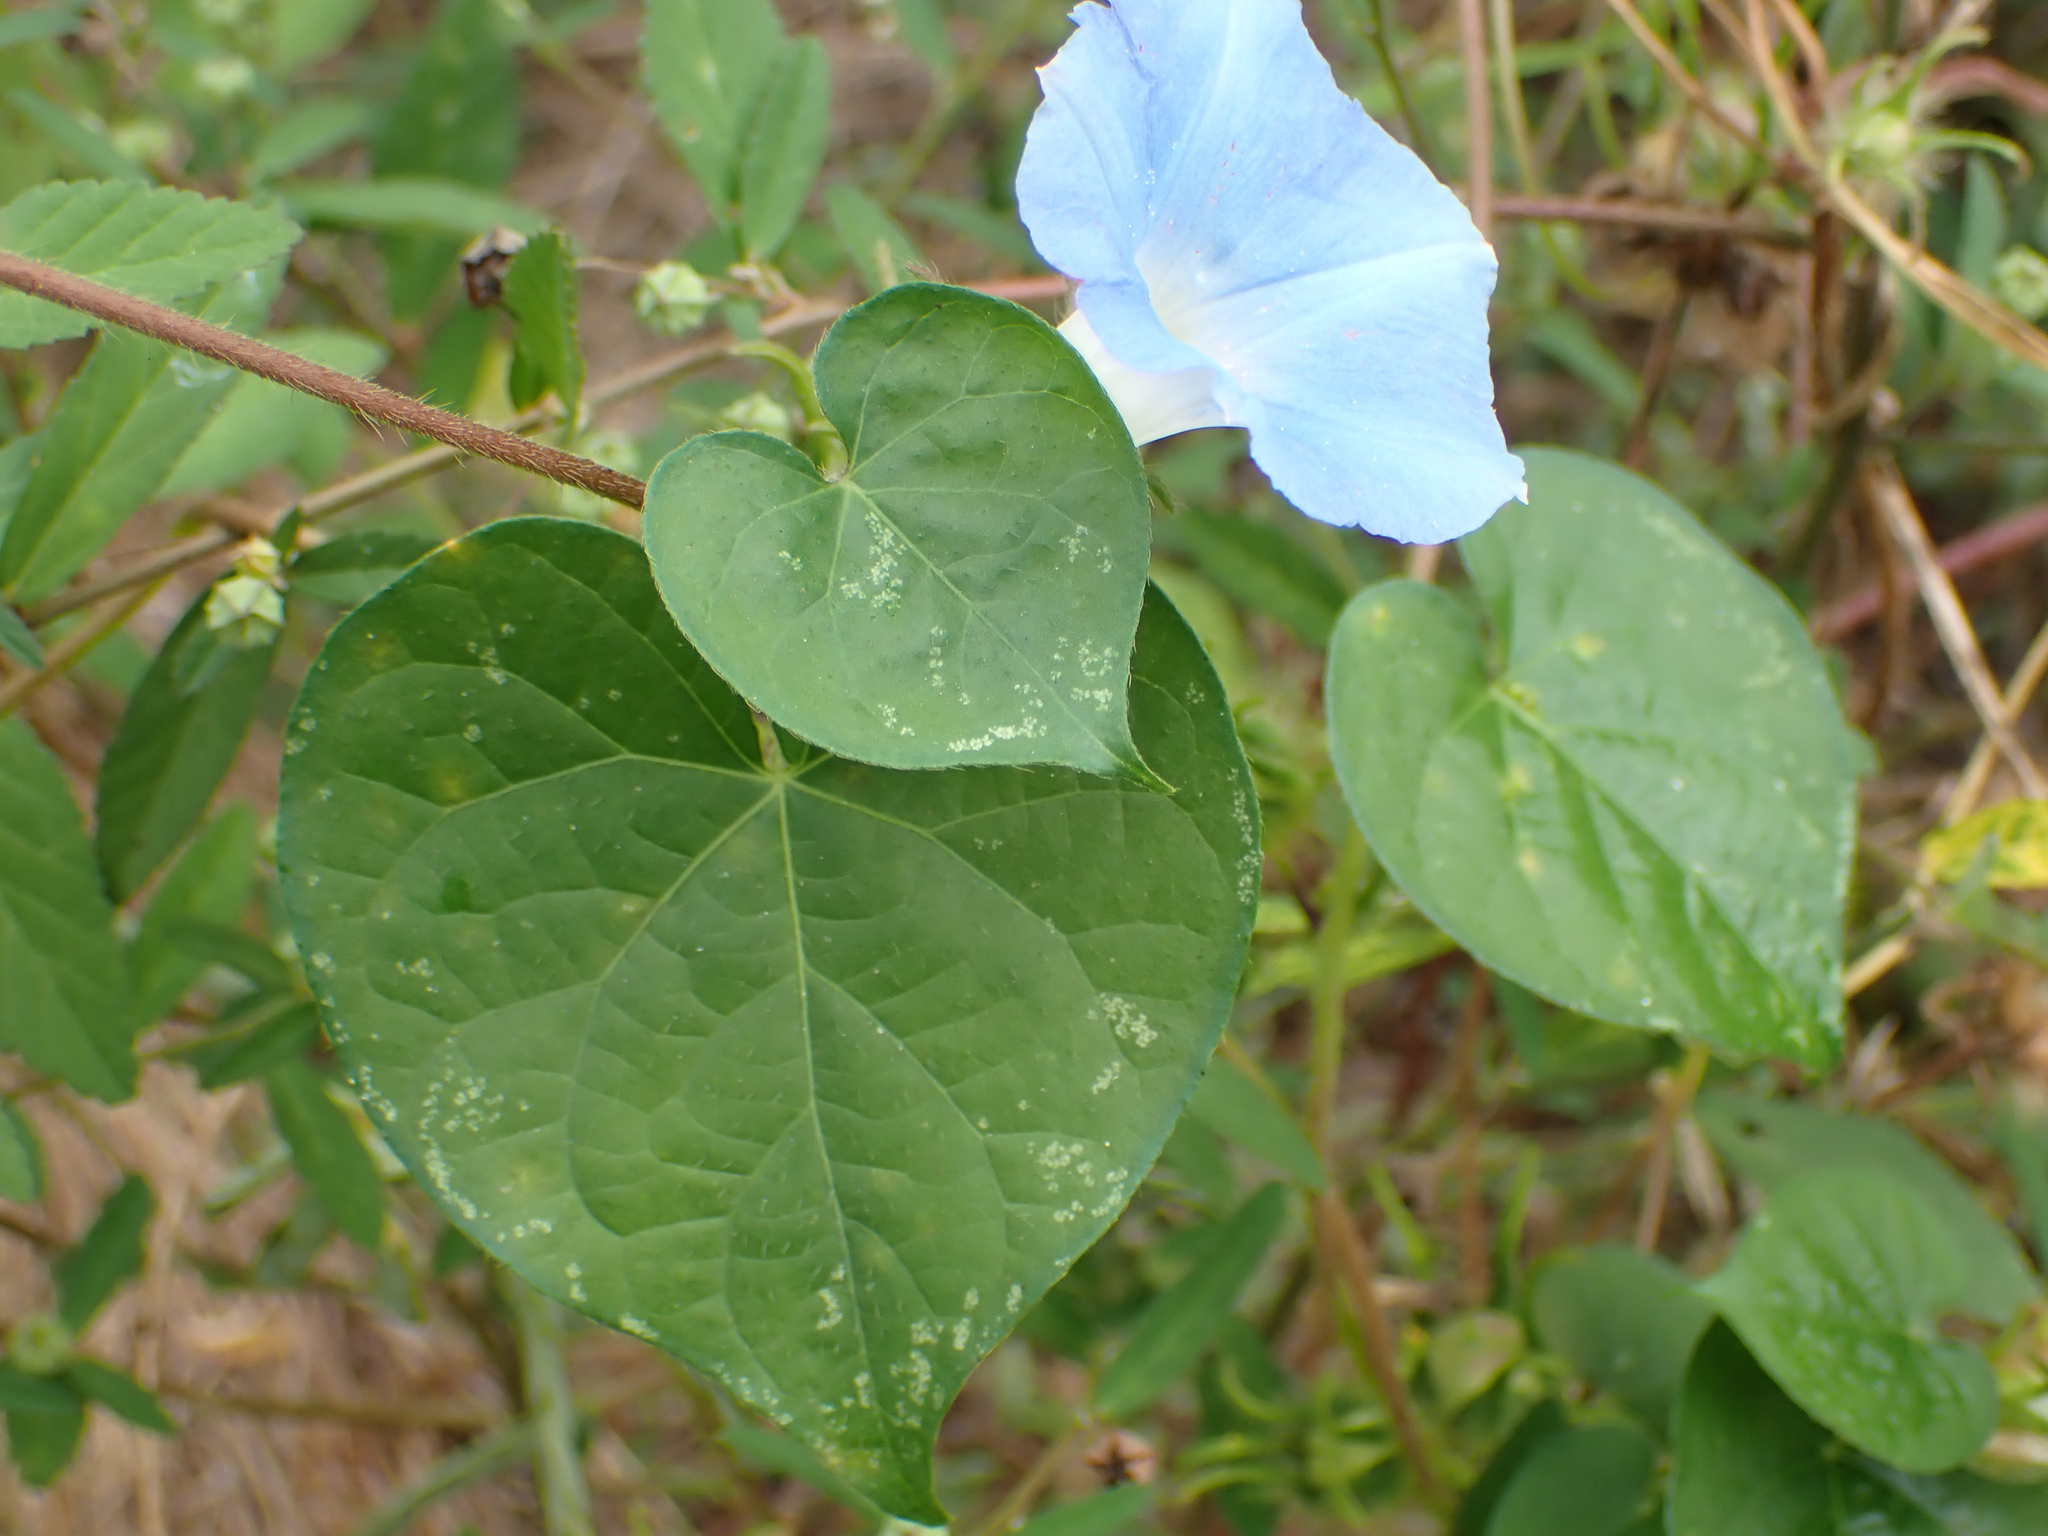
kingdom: Plantae
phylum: Tracheophyta
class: Magnoliopsida
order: Solanales
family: Convolvulaceae
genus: Ipomoea
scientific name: Ipomoea hederacea
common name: Ivy-leaved morning-glory
